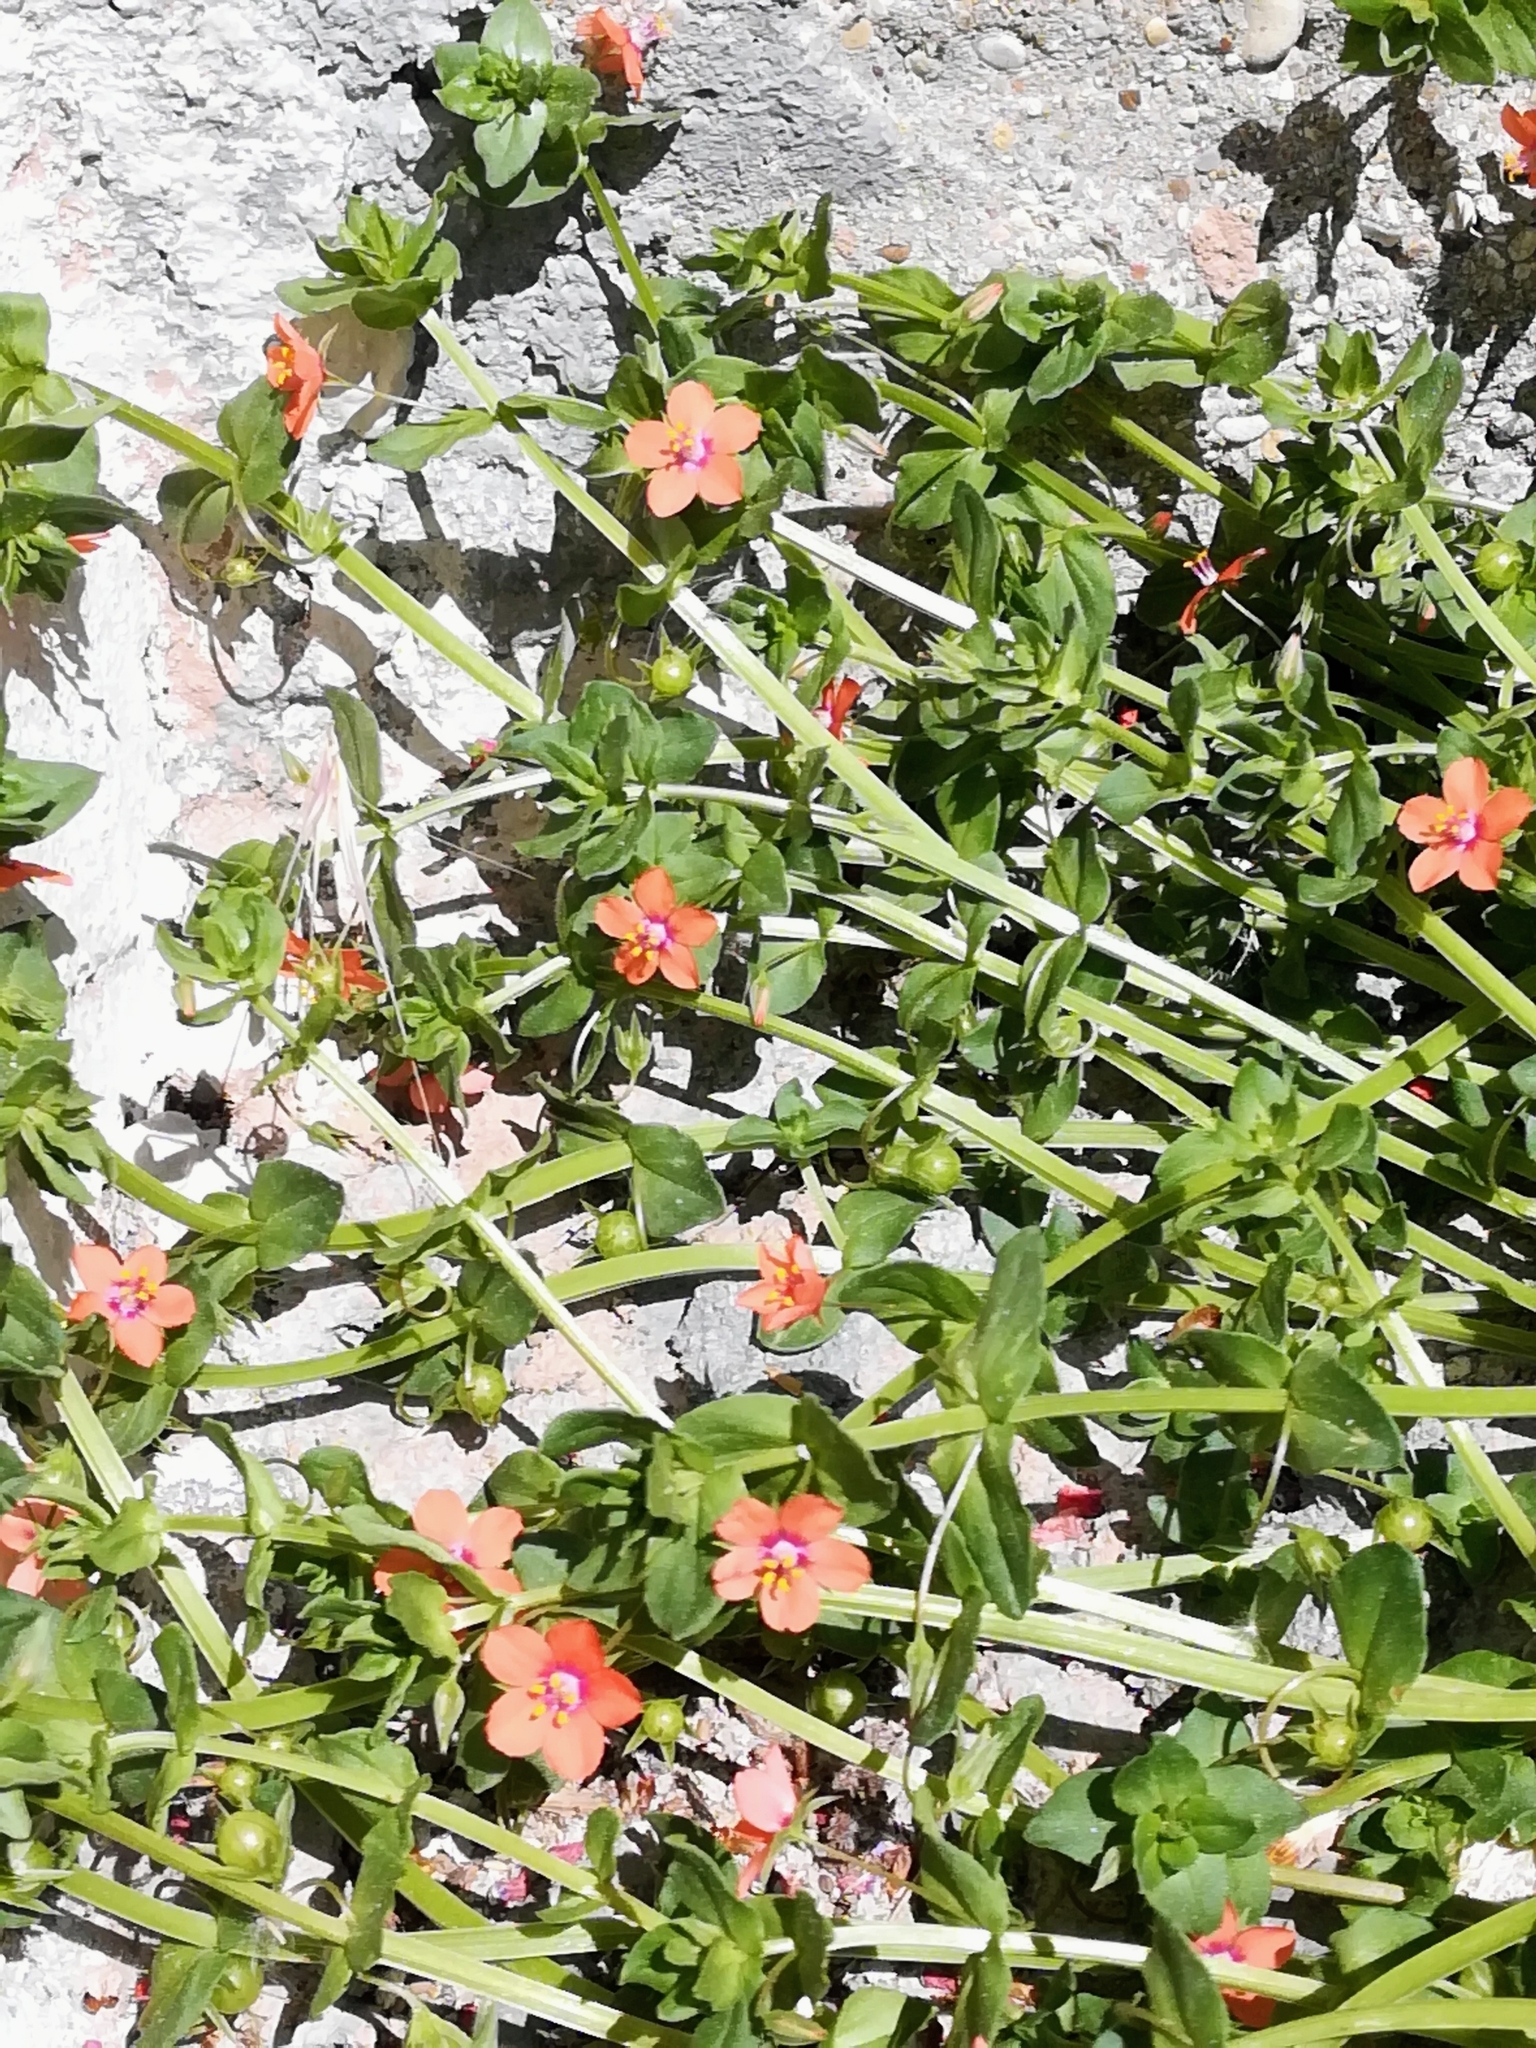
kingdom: Plantae
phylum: Tracheophyta
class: Magnoliopsida
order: Ericales
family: Primulaceae
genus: Lysimachia
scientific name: Lysimachia arvensis
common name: Scarlet pimpernel
